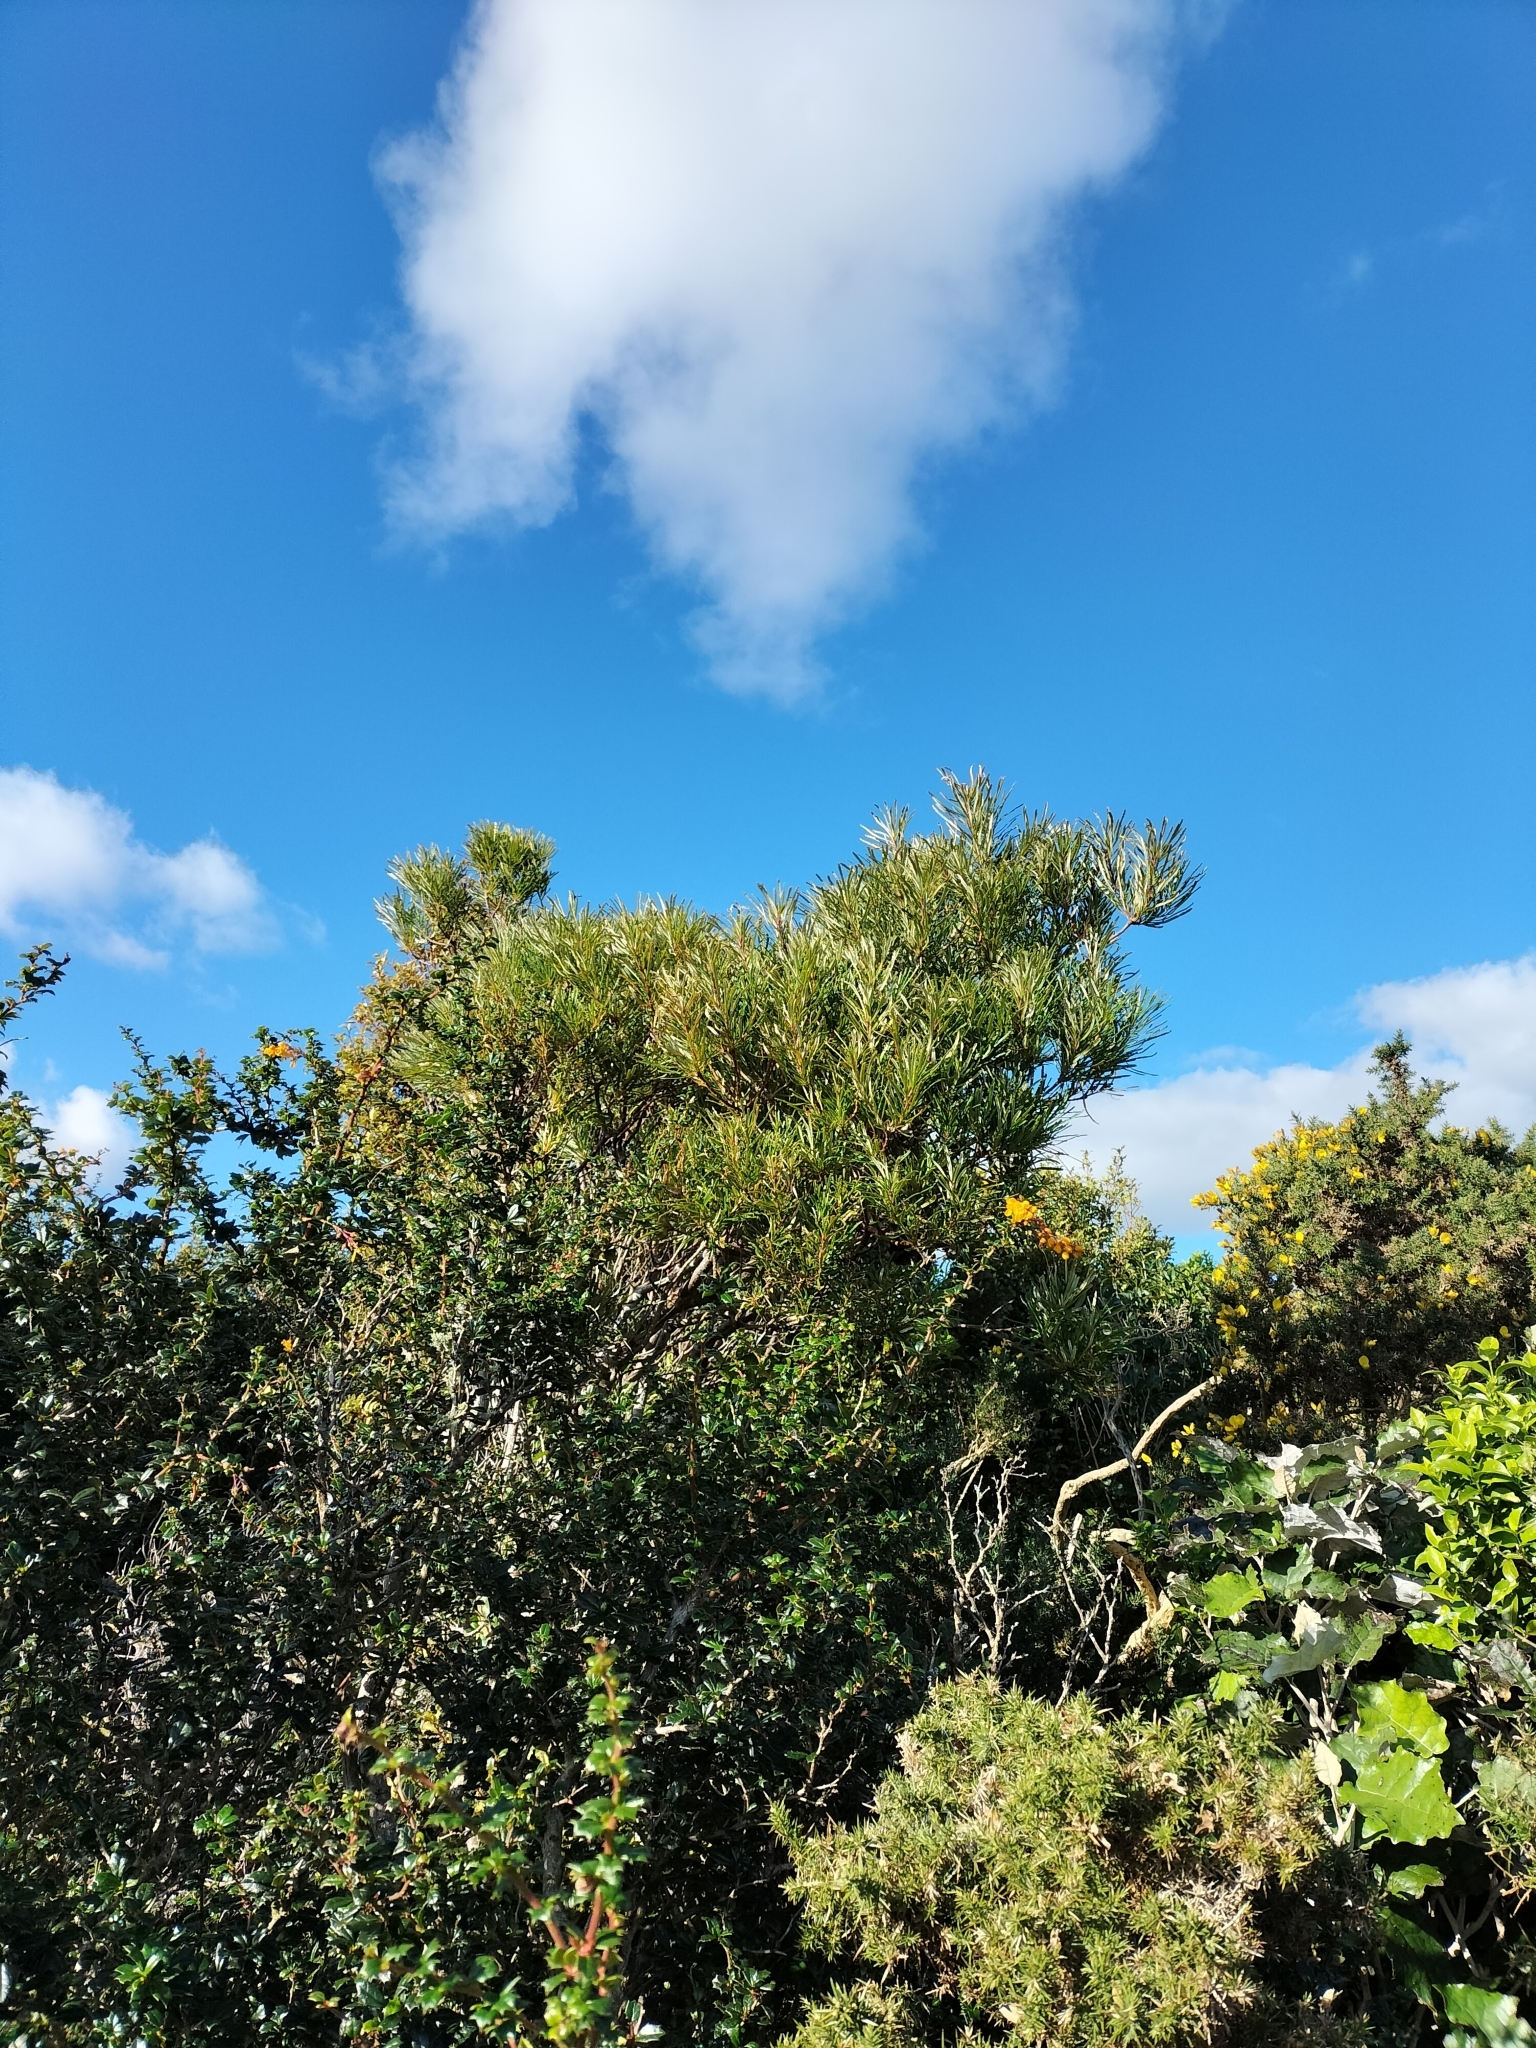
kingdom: Plantae
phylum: Tracheophyta
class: Magnoliopsida
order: Proteales
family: Proteaceae
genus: Banksia
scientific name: Banksia spinulosa
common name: Hairpin banksia
